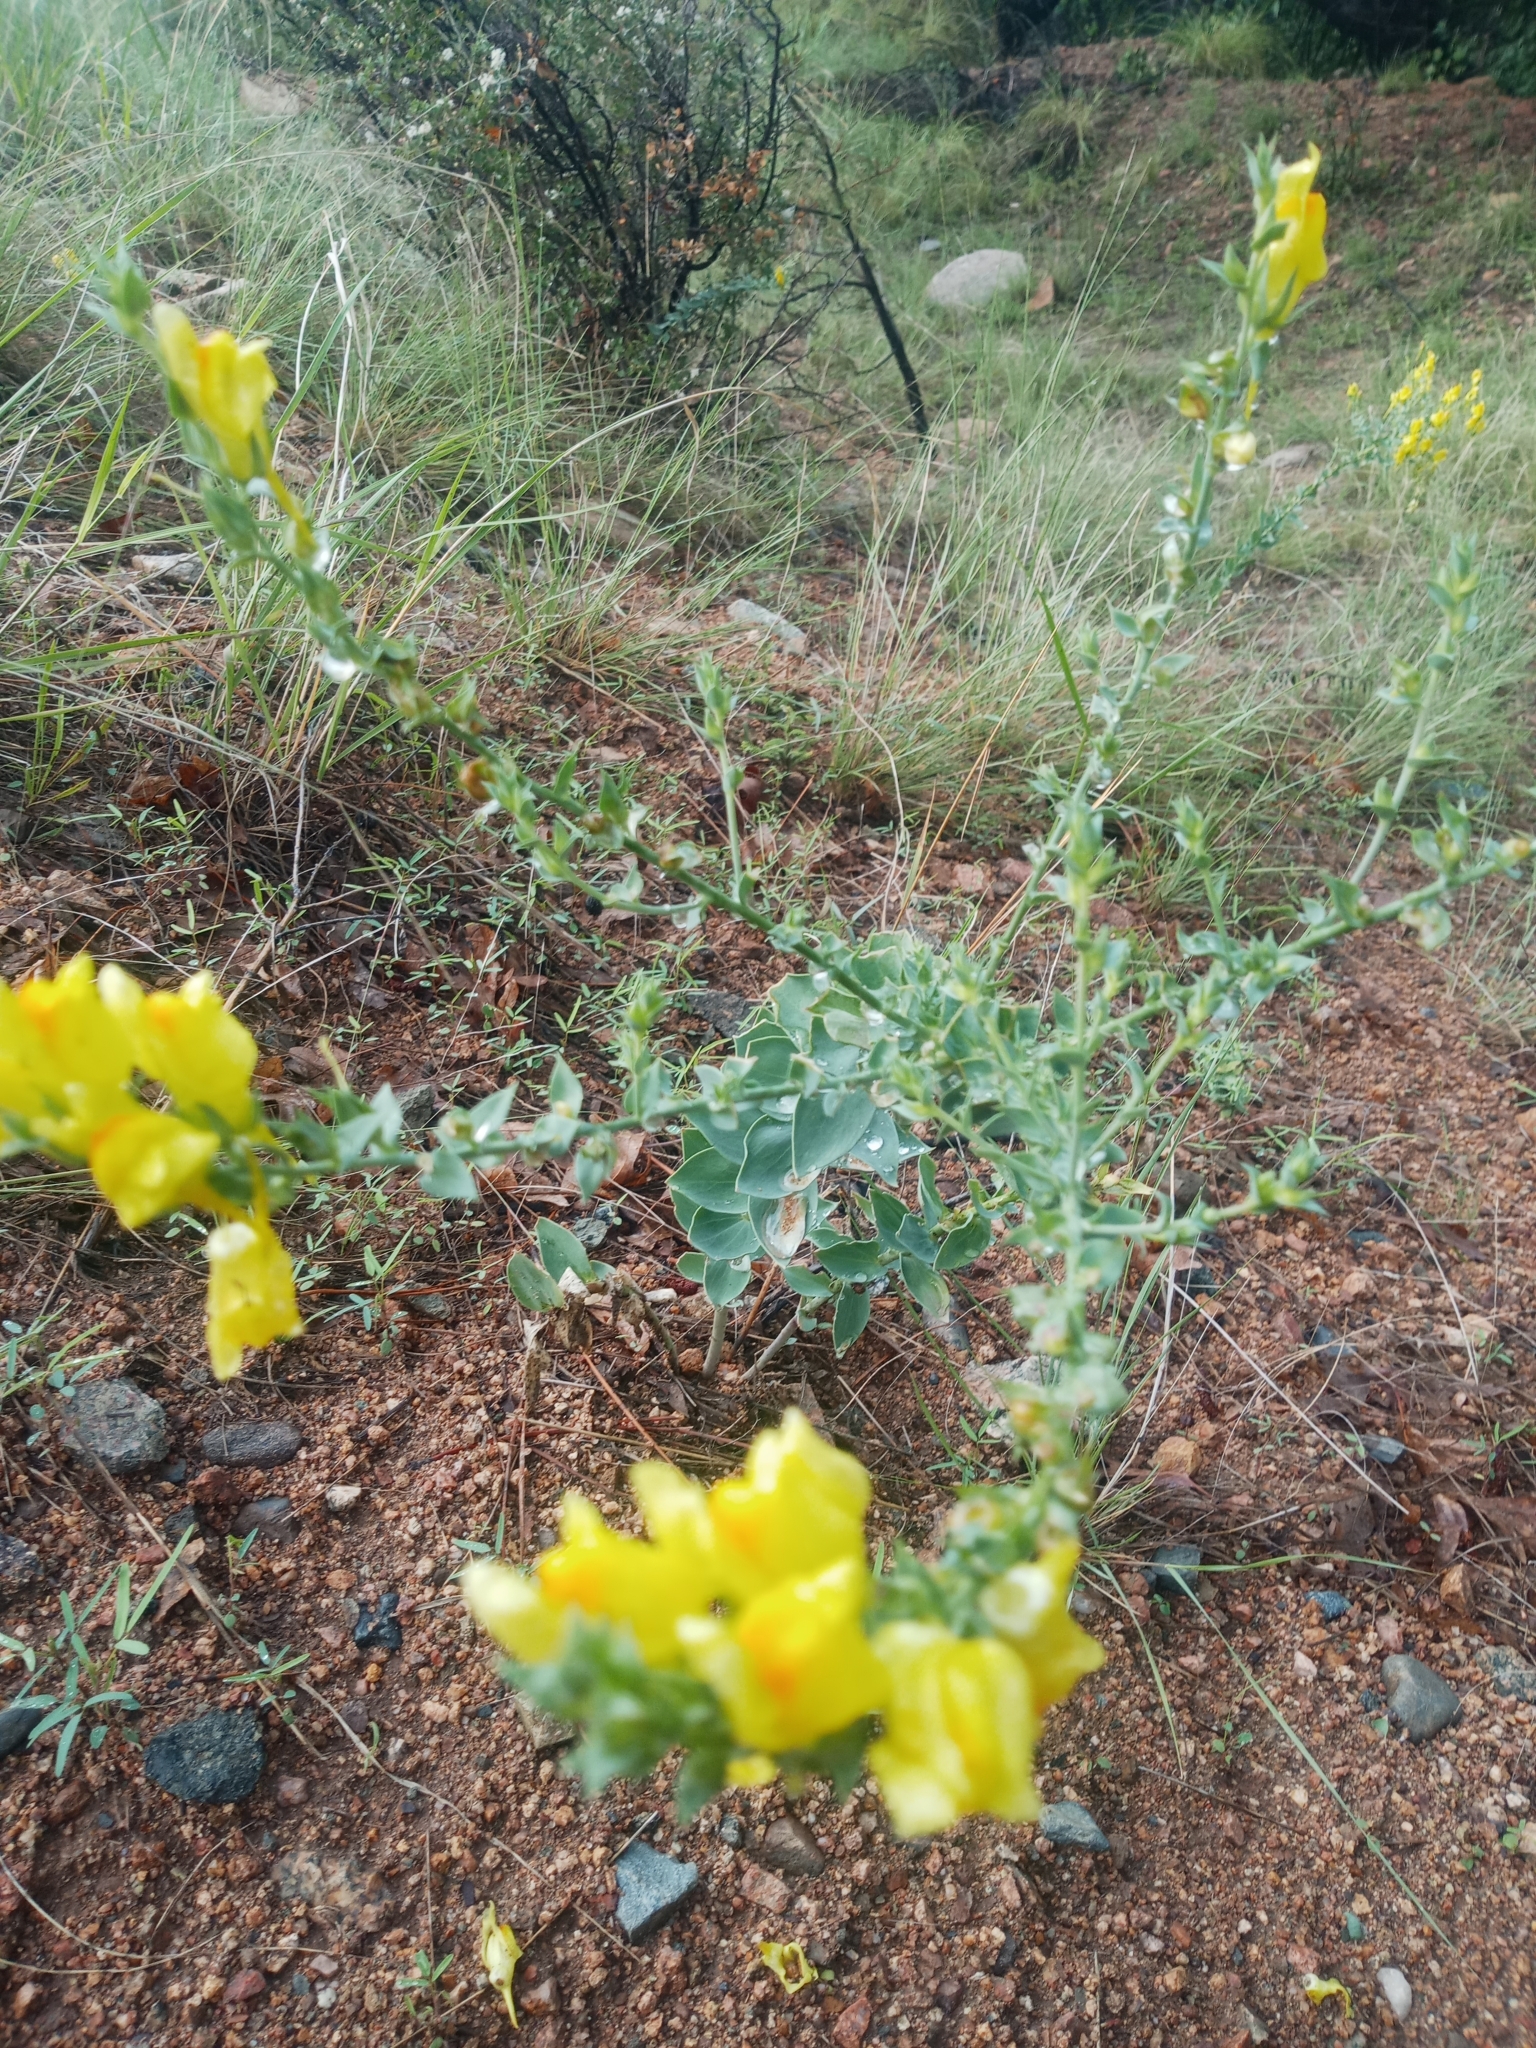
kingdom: Plantae
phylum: Tracheophyta
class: Magnoliopsida
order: Lamiales
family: Plantaginaceae
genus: Linaria
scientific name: Linaria dalmatica
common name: Dalmatian toadflax
